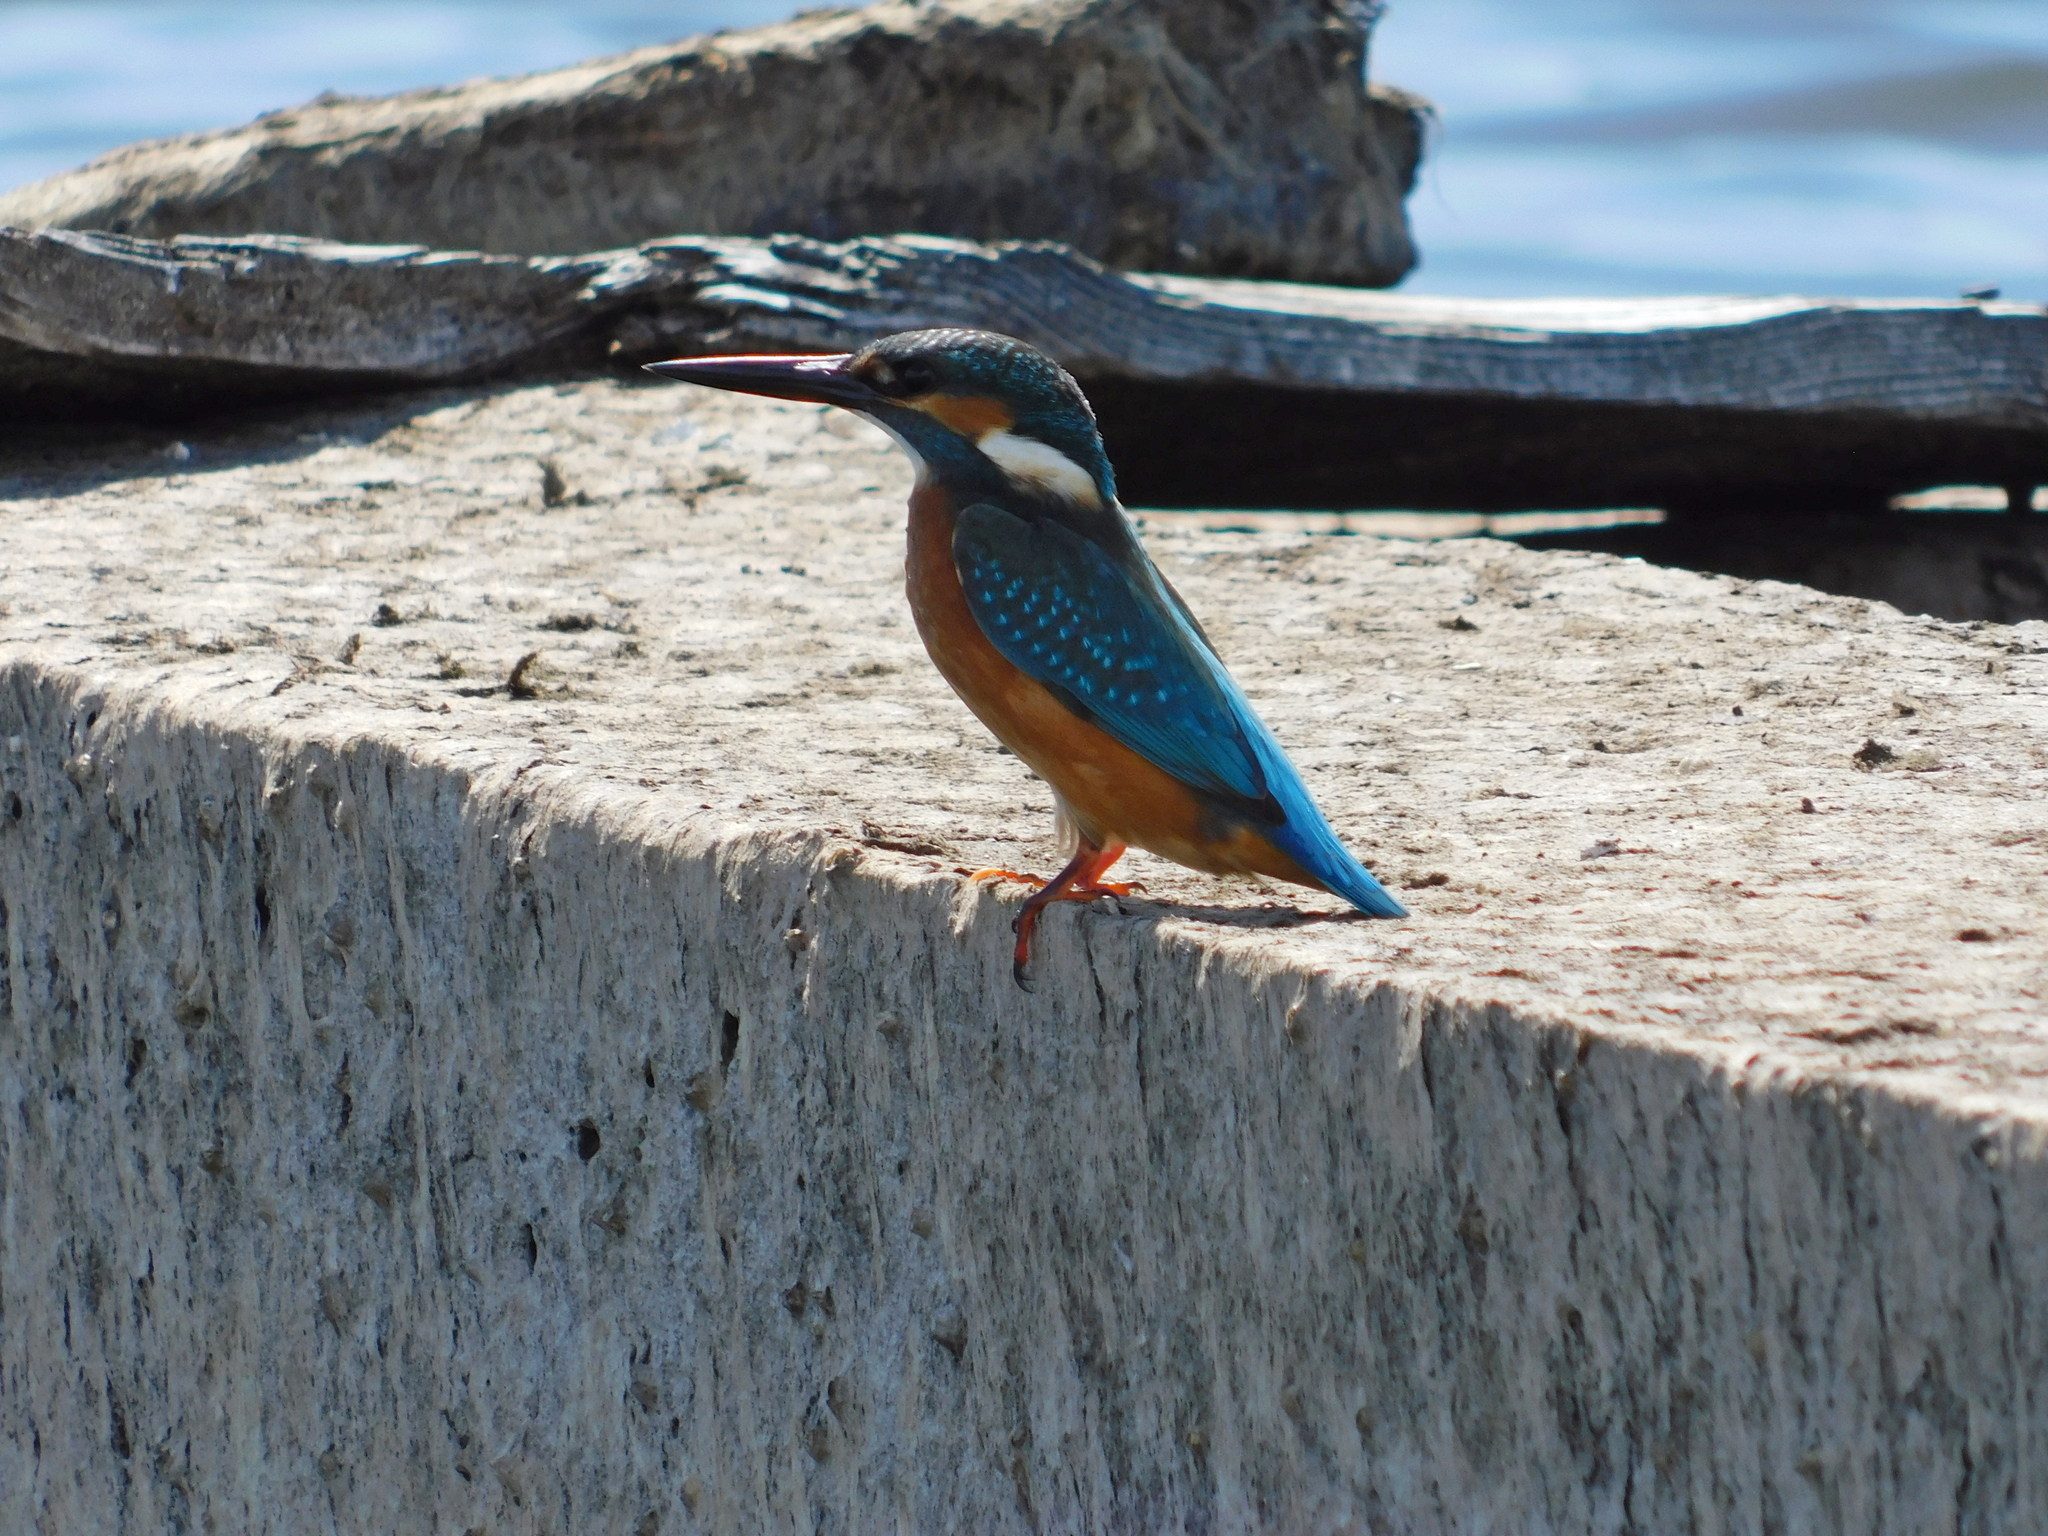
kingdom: Animalia
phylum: Chordata
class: Aves
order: Coraciiformes
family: Alcedinidae
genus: Alcedo
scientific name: Alcedo atthis
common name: Common kingfisher
